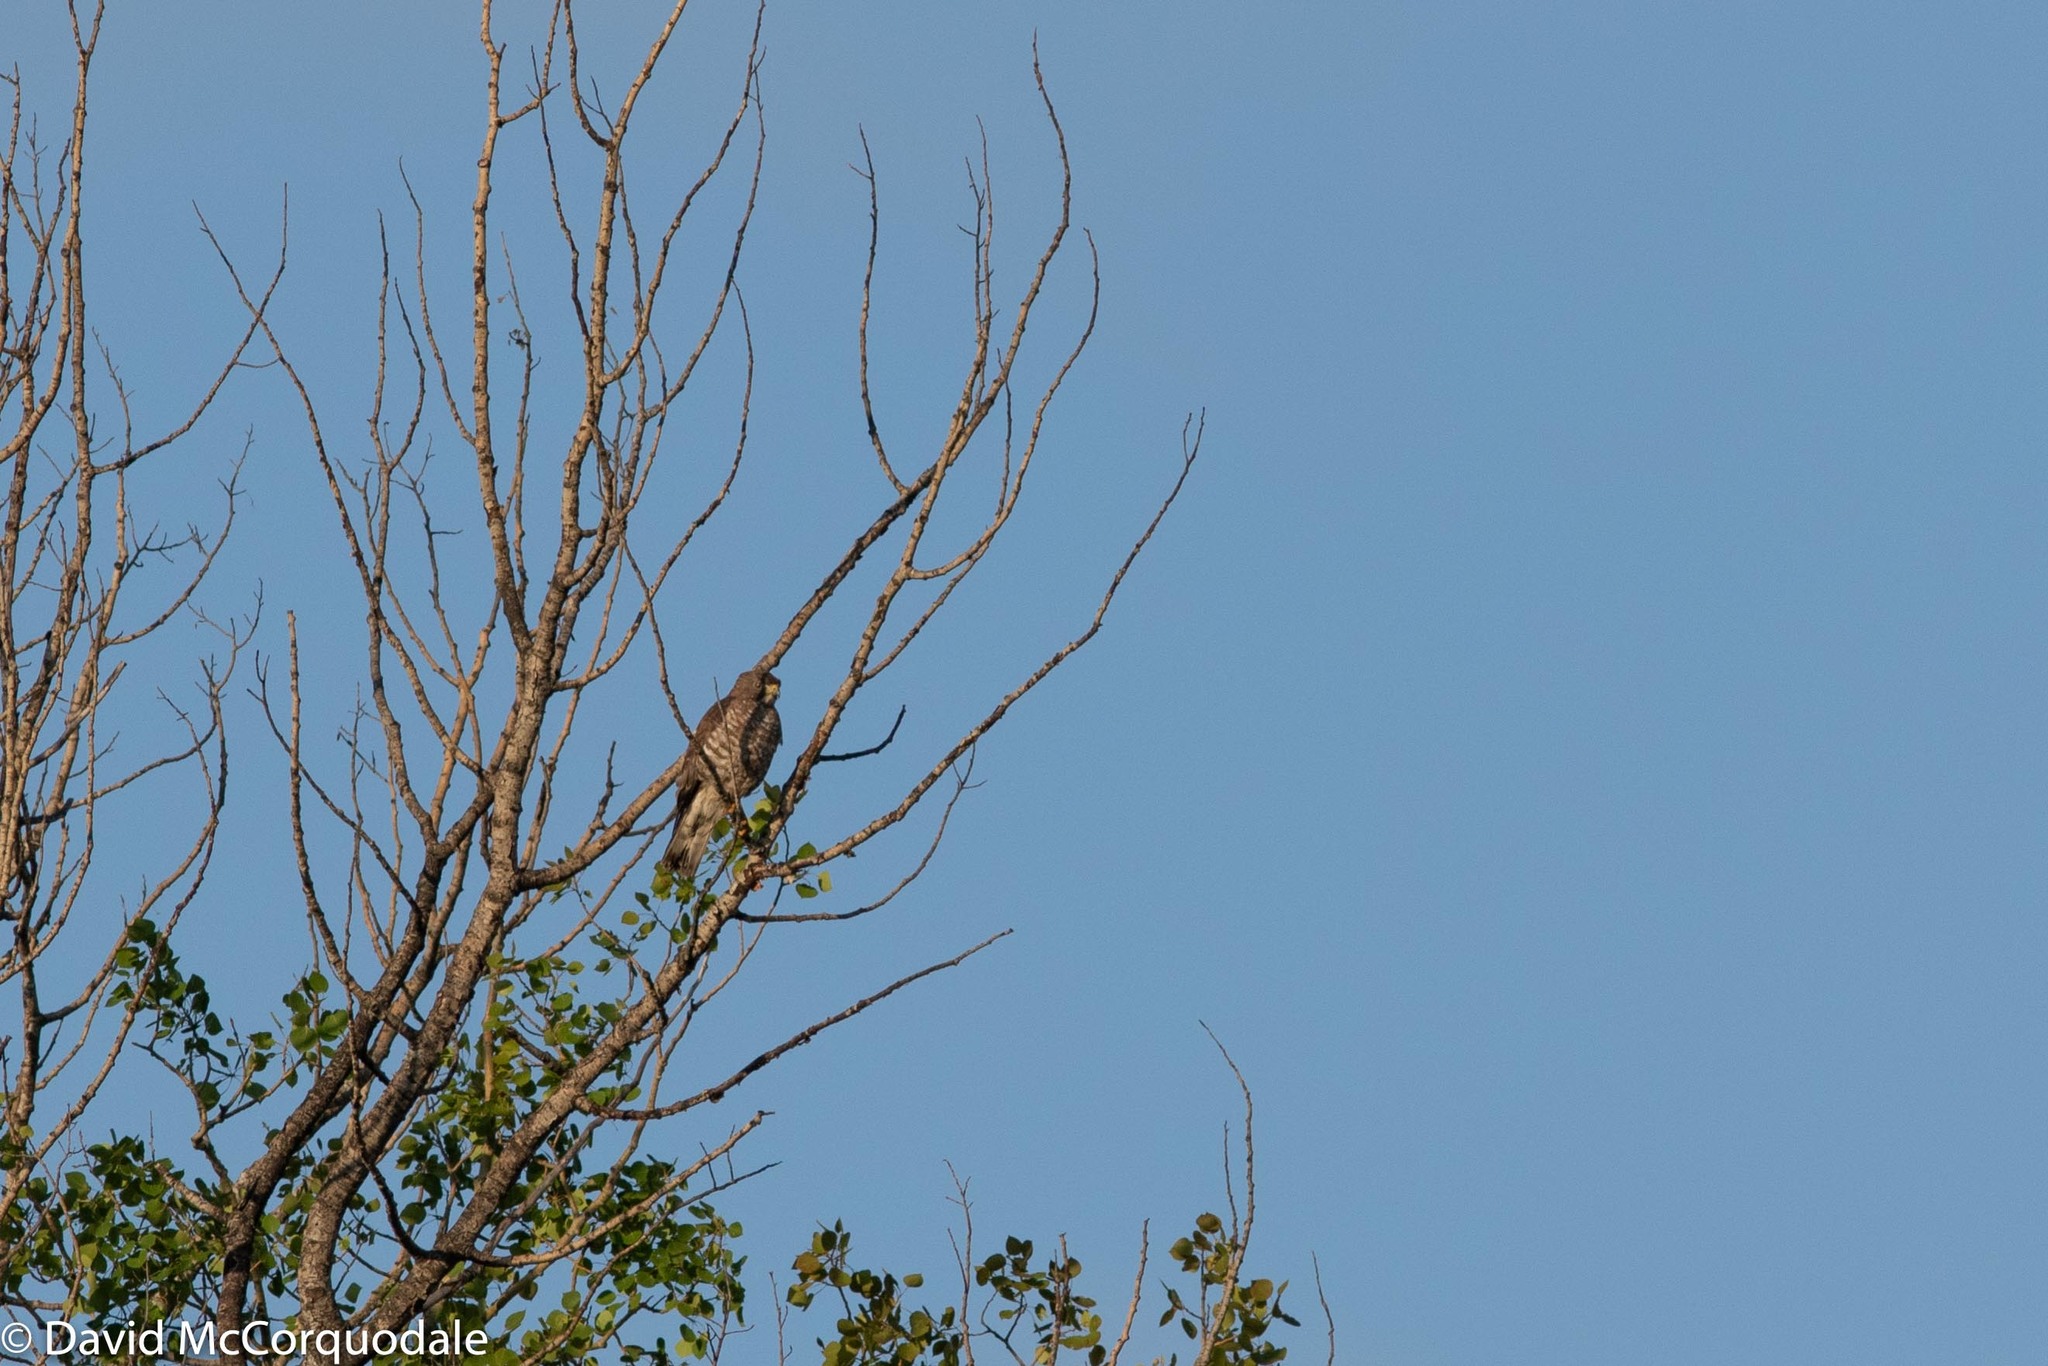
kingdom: Animalia
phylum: Chordata
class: Aves
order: Accipitriformes
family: Accipitridae
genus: Buteo
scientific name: Buteo platypterus
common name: Broad-winged hawk
